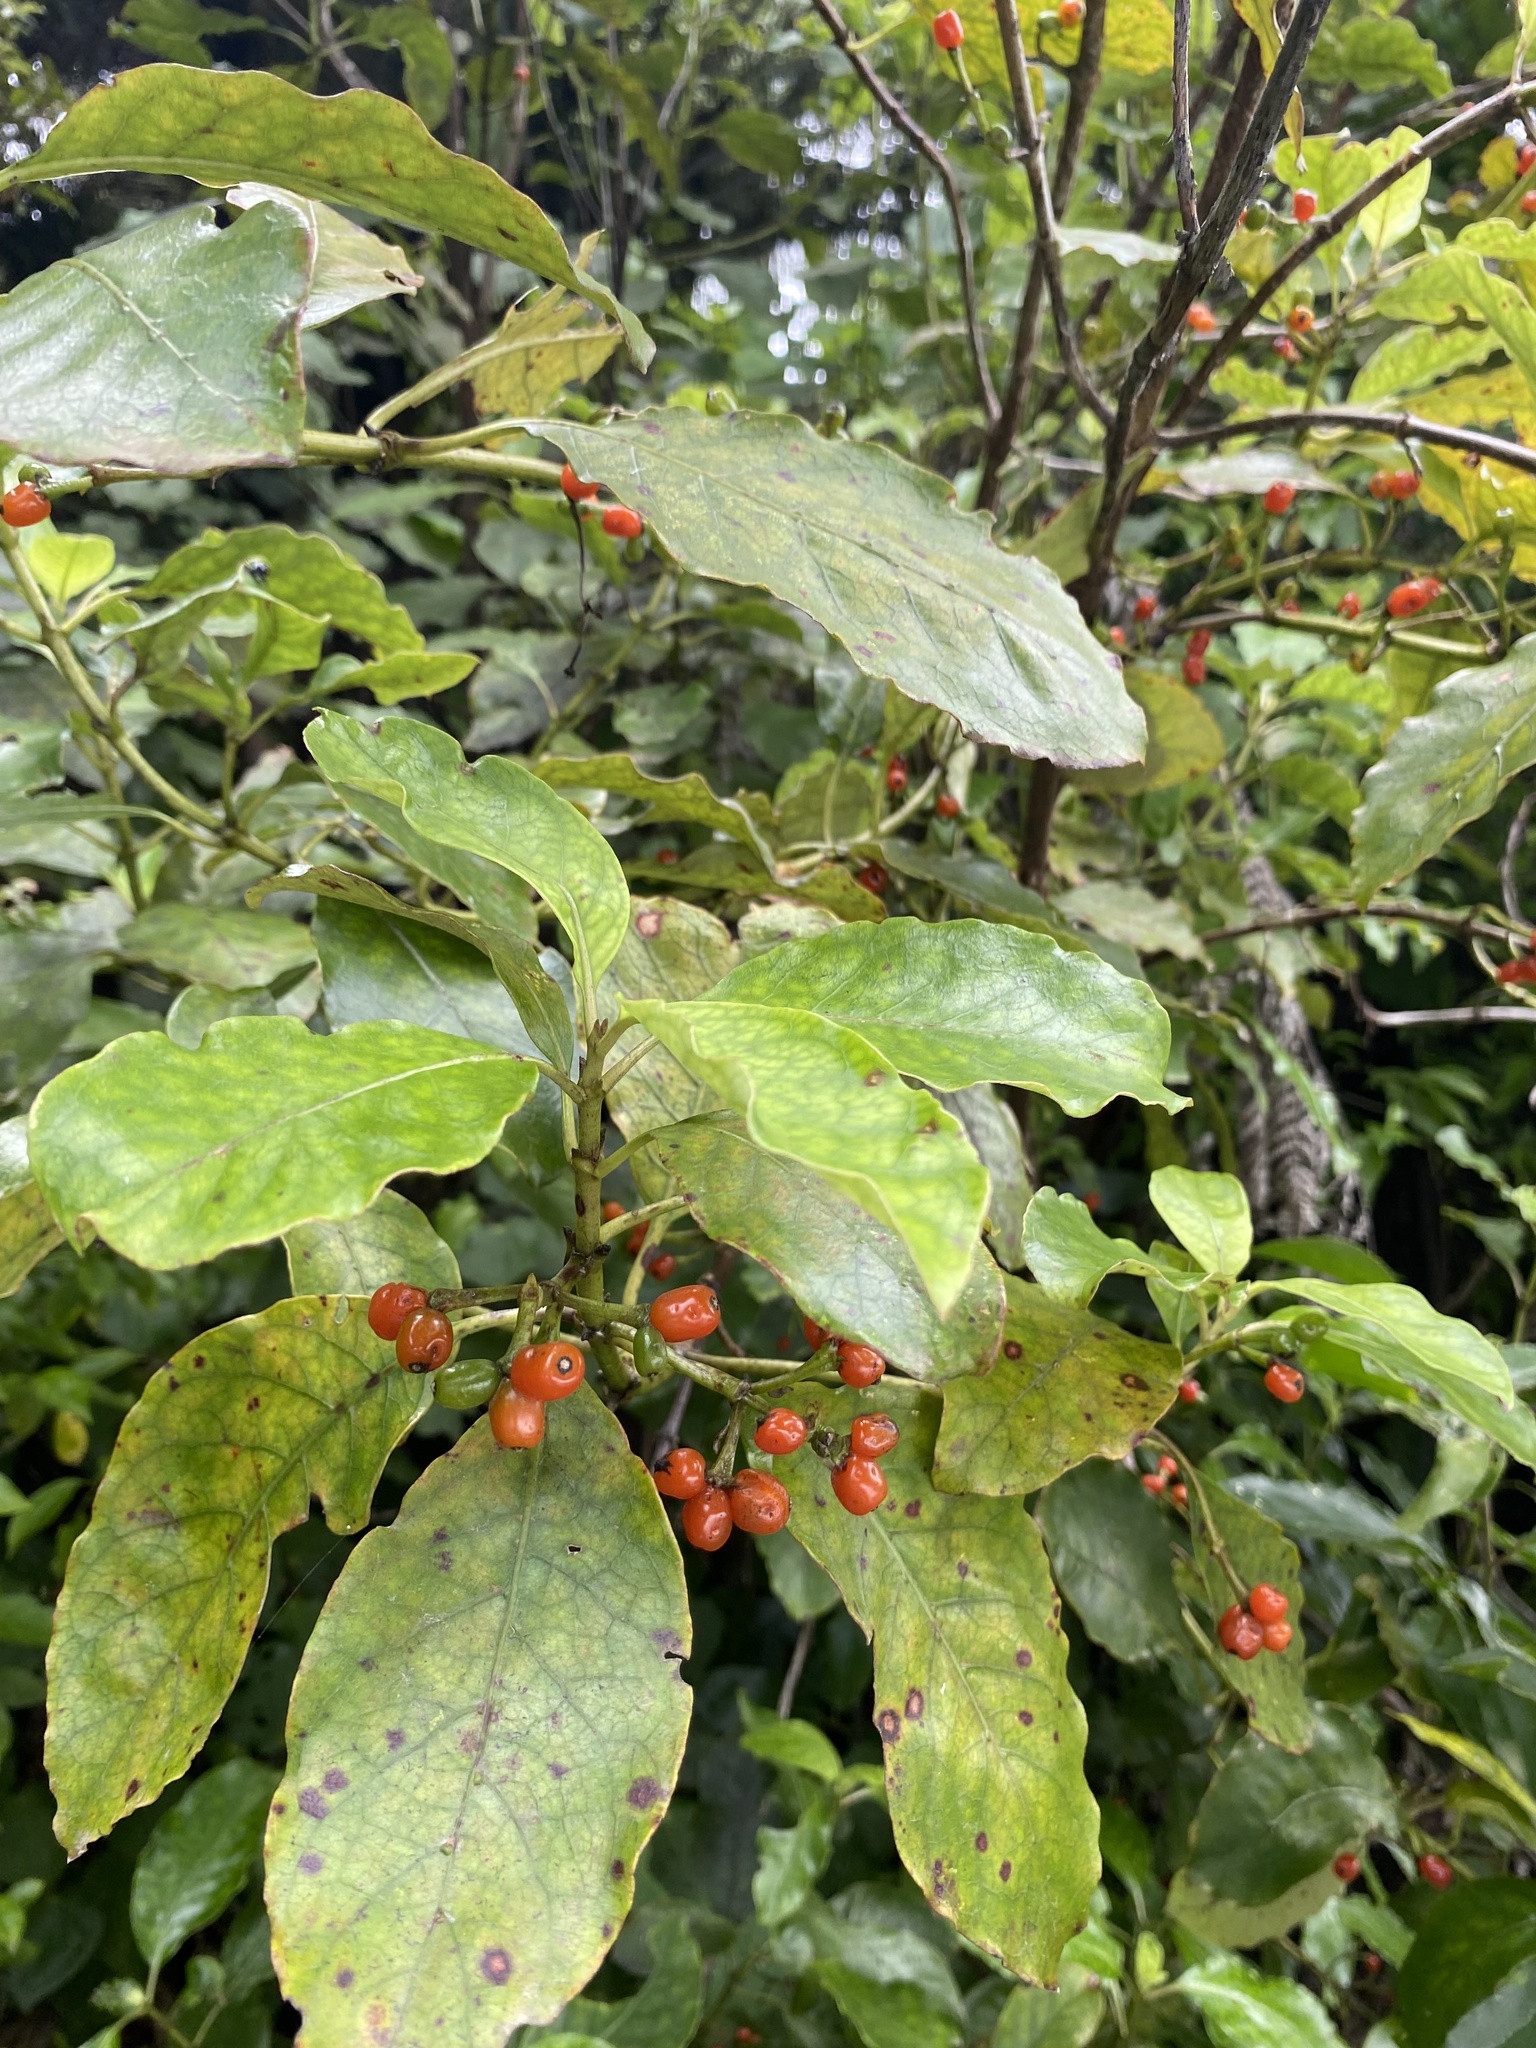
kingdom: Plantae
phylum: Tracheophyta
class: Magnoliopsida
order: Gentianales
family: Rubiaceae
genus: Coprosma
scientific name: Coprosma autumnalis
